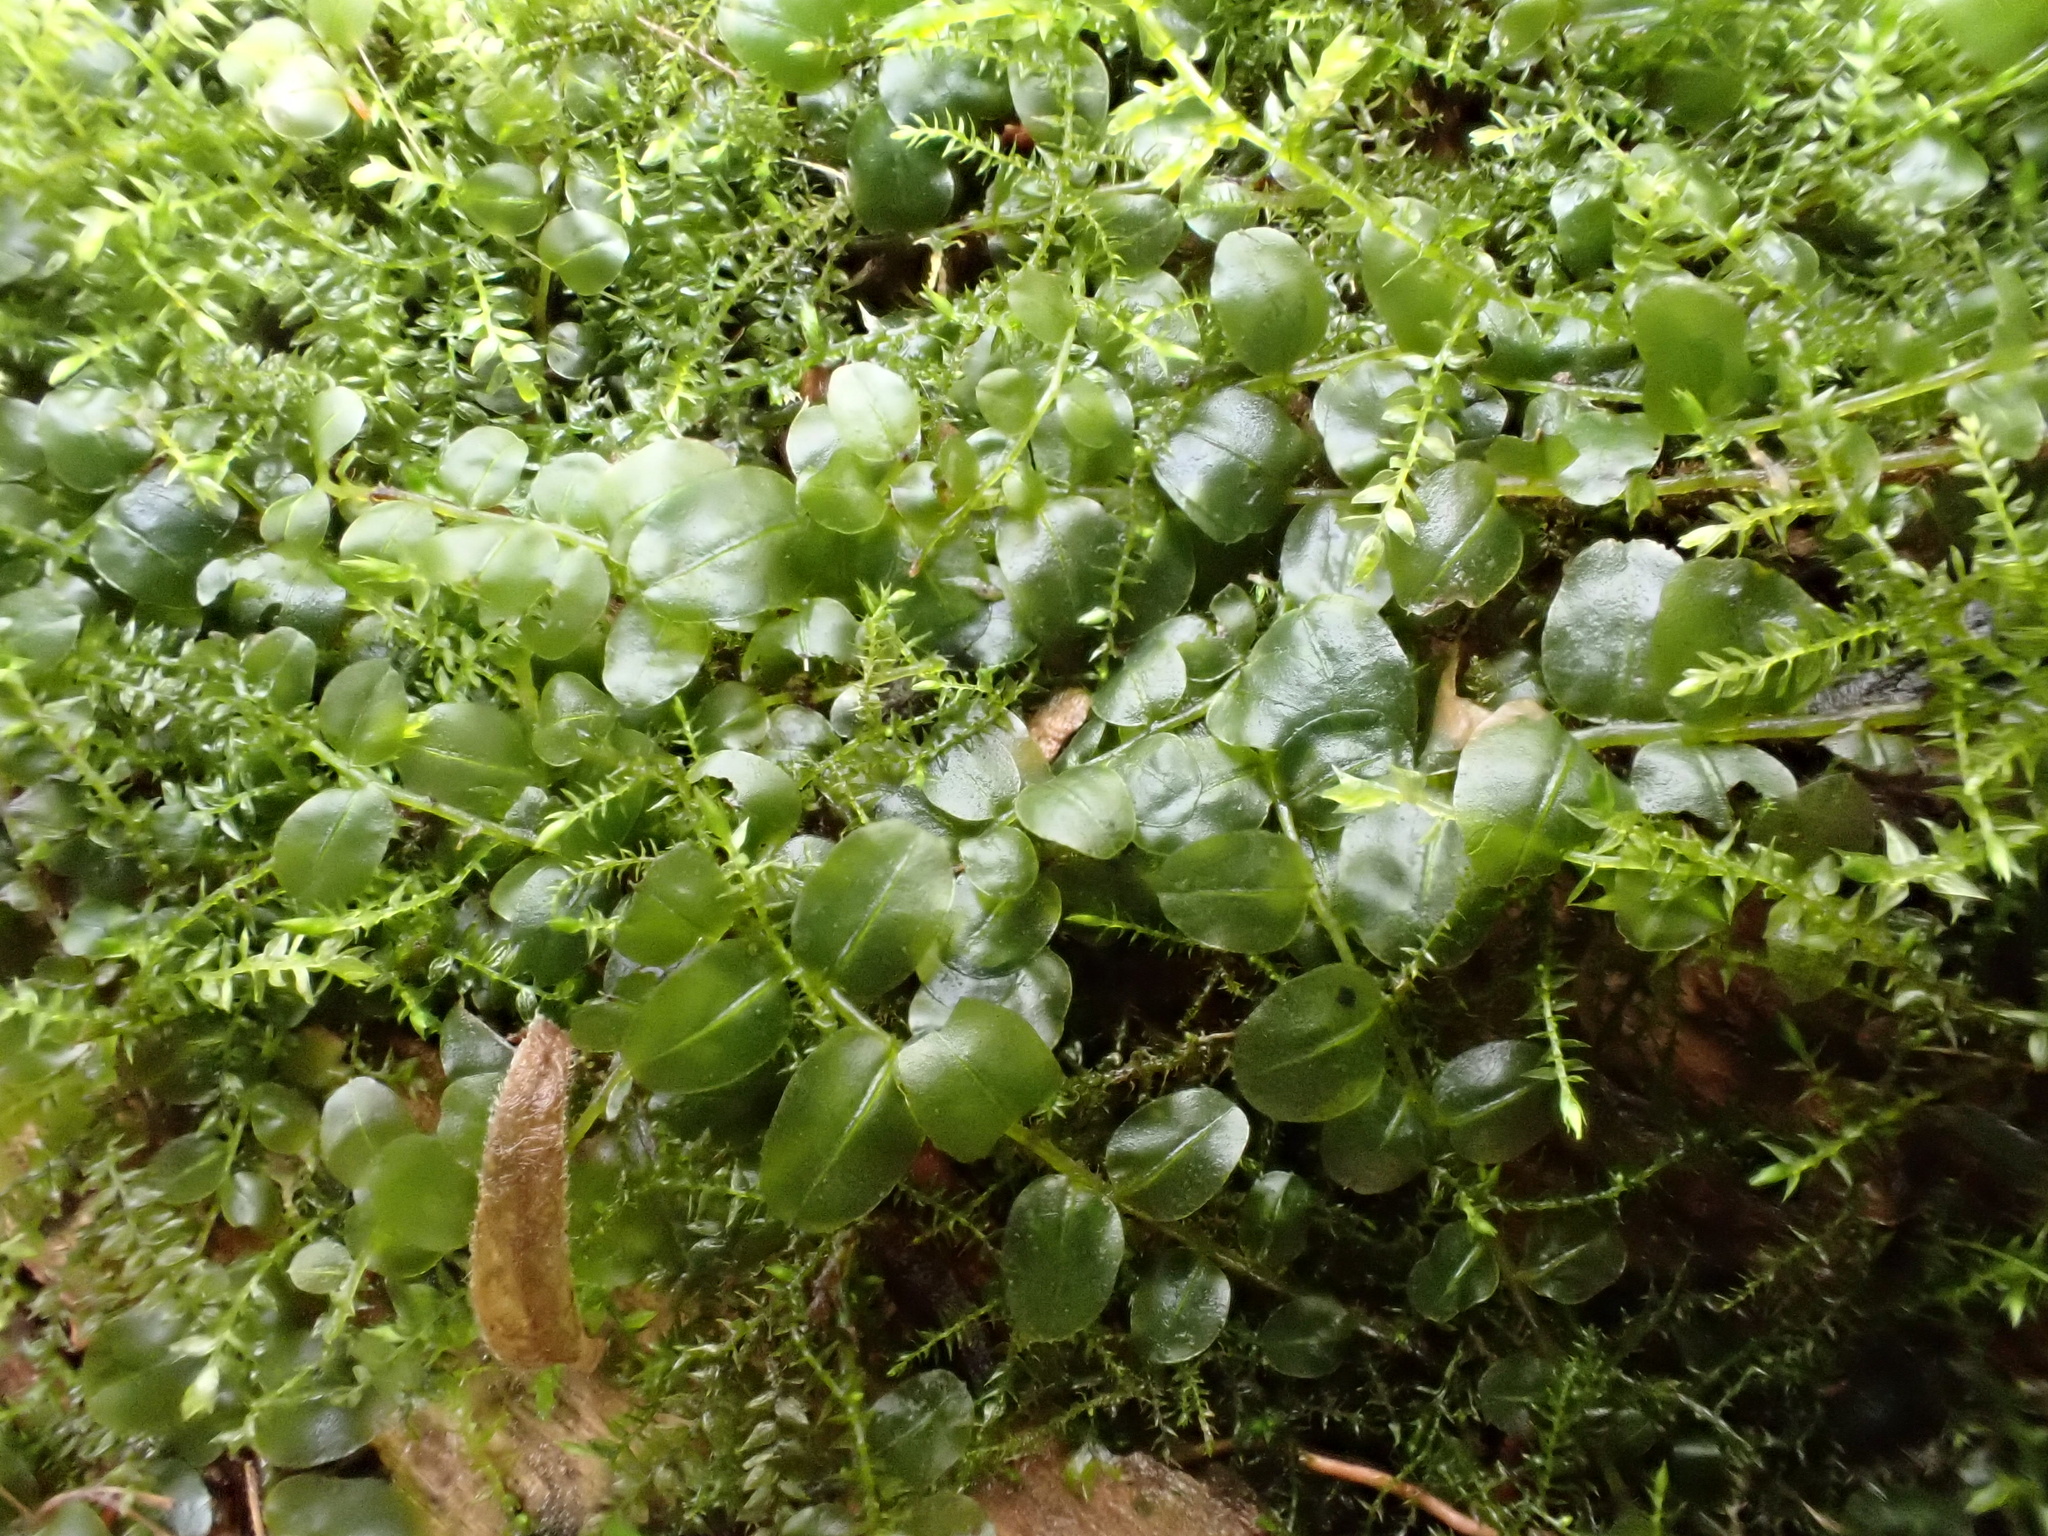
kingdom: Plantae
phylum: Bryophyta
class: Bryopsida
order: Bryales
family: Mniaceae
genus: Plagiomnium
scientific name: Plagiomnium rostratum
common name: Long-beaked leafy moss
